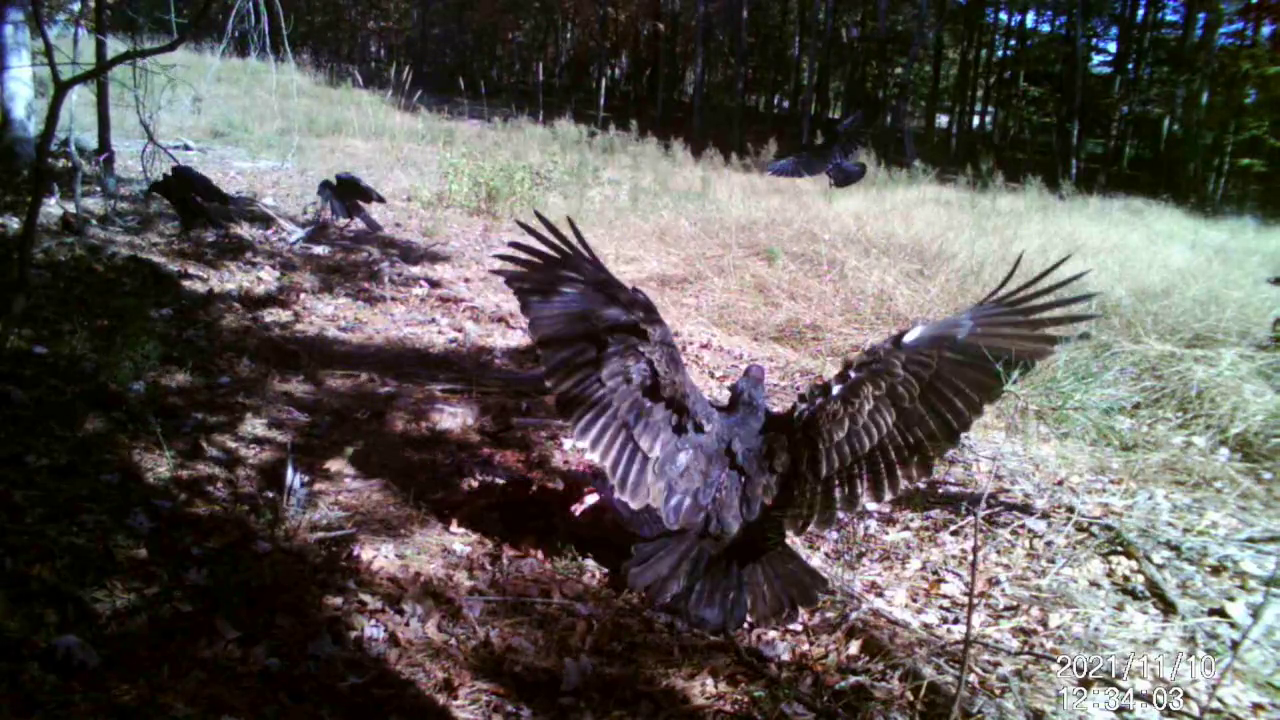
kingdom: Animalia
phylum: Chordata
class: Aves
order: Accipitriformes
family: Cathartidae
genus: Cathartes
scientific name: Cathartes aura
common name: Turkey vulture
